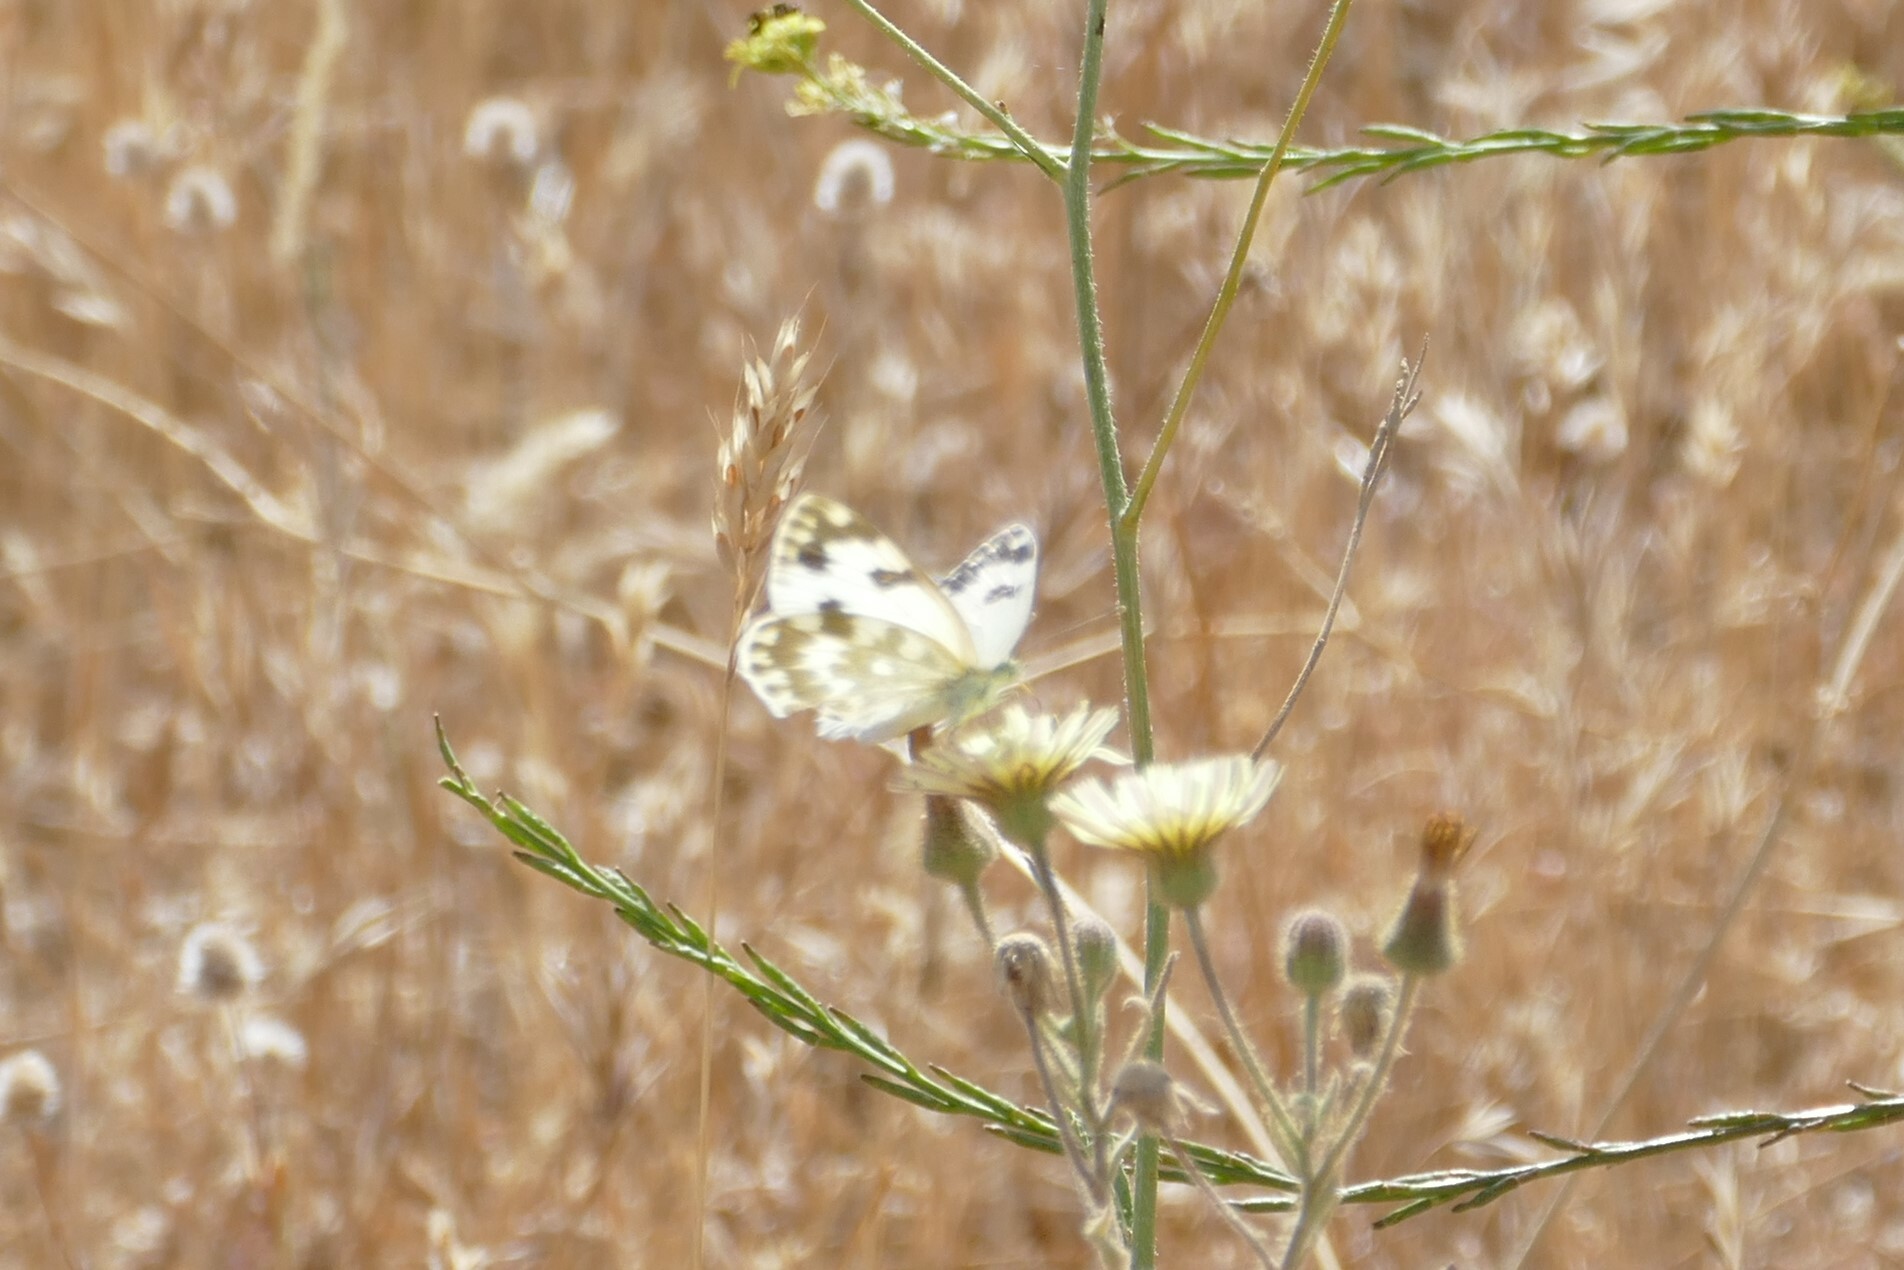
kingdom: Animalia
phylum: Arthropoda
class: Insecta
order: Lepidoptera
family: Pieridae
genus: Pontia
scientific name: Pontia daplidice
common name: Bath white
